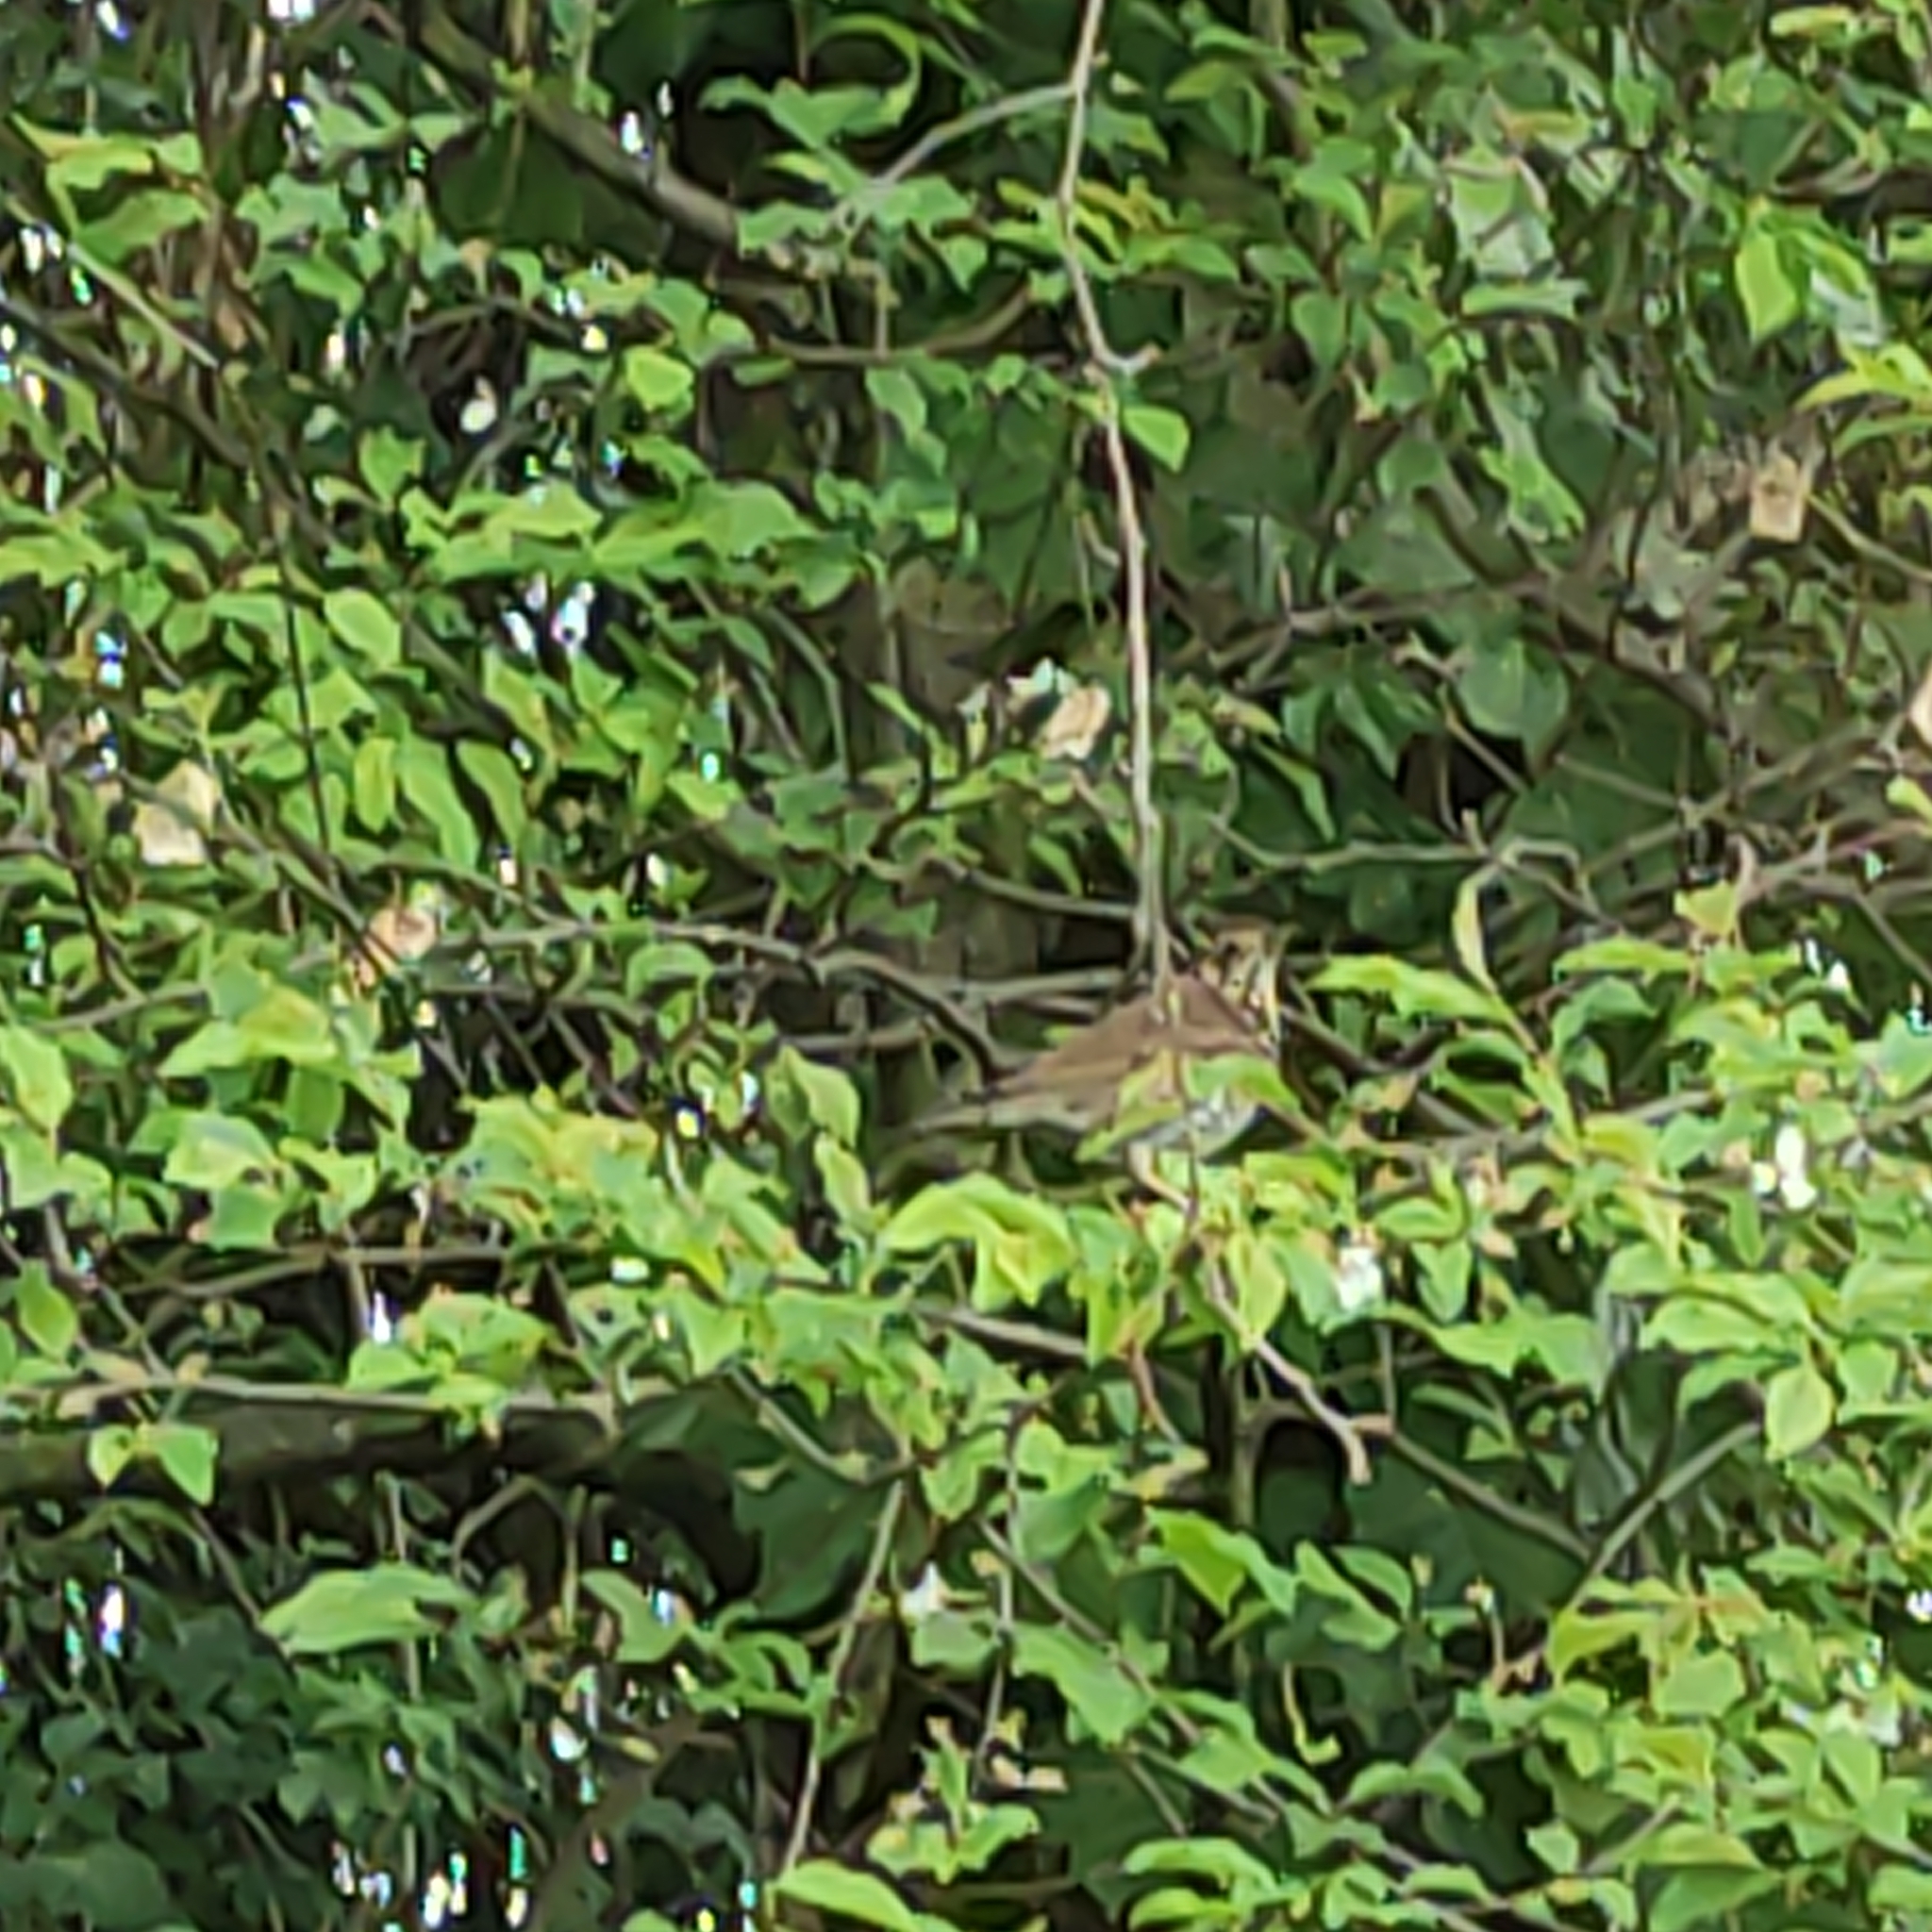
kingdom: Animalia
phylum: Chordata
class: Aves
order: Passeriformes
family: Turdidae
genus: Turdus
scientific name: Turdus philomelos
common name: Song thrush
